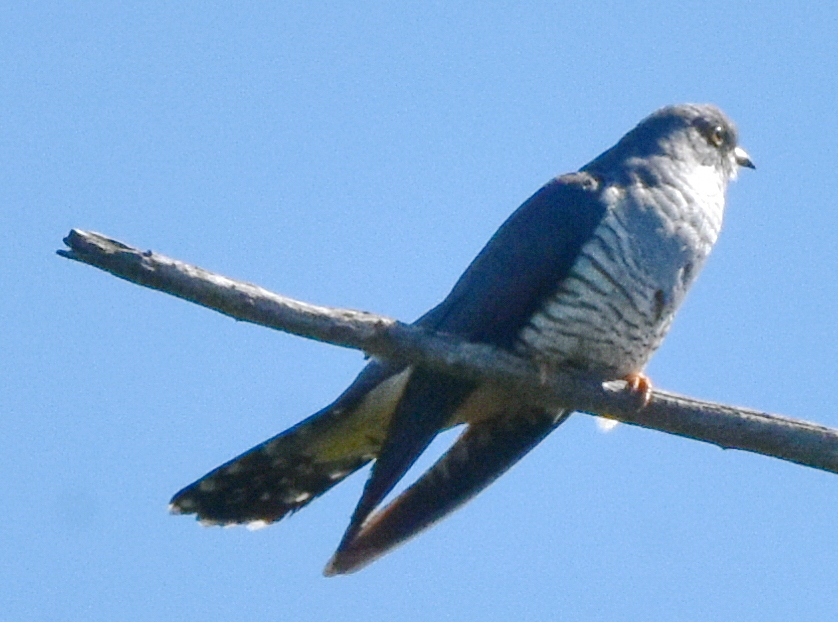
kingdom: Animalia
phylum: Chordata
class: Aves
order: Cuculiformes
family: Cuculidae
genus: Cuculus
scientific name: Cuculus optatus
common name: Oriental cuckoo
